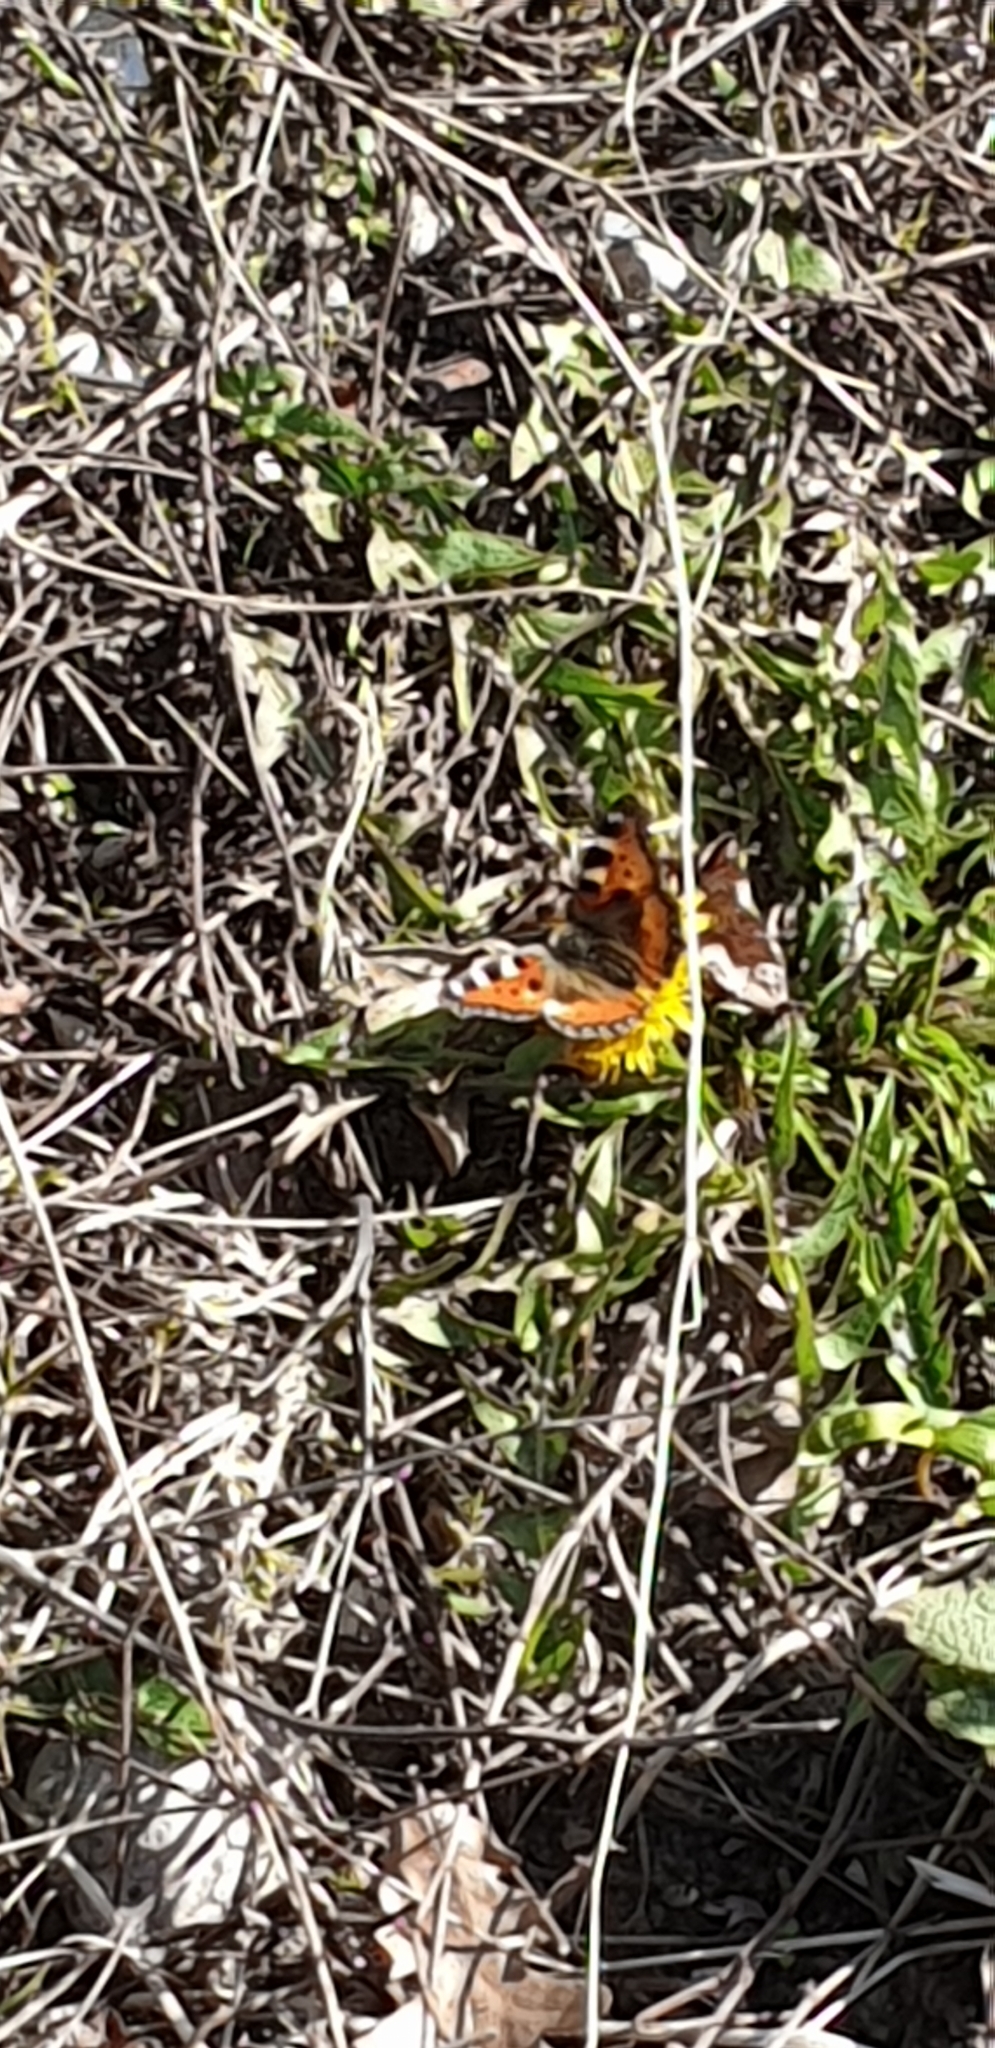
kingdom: Animalia
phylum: Arthropoda
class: Insecta
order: Lepidoptera
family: Nymphalidae
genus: Aglais
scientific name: Aglais urticae
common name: Small tortoiseshell
